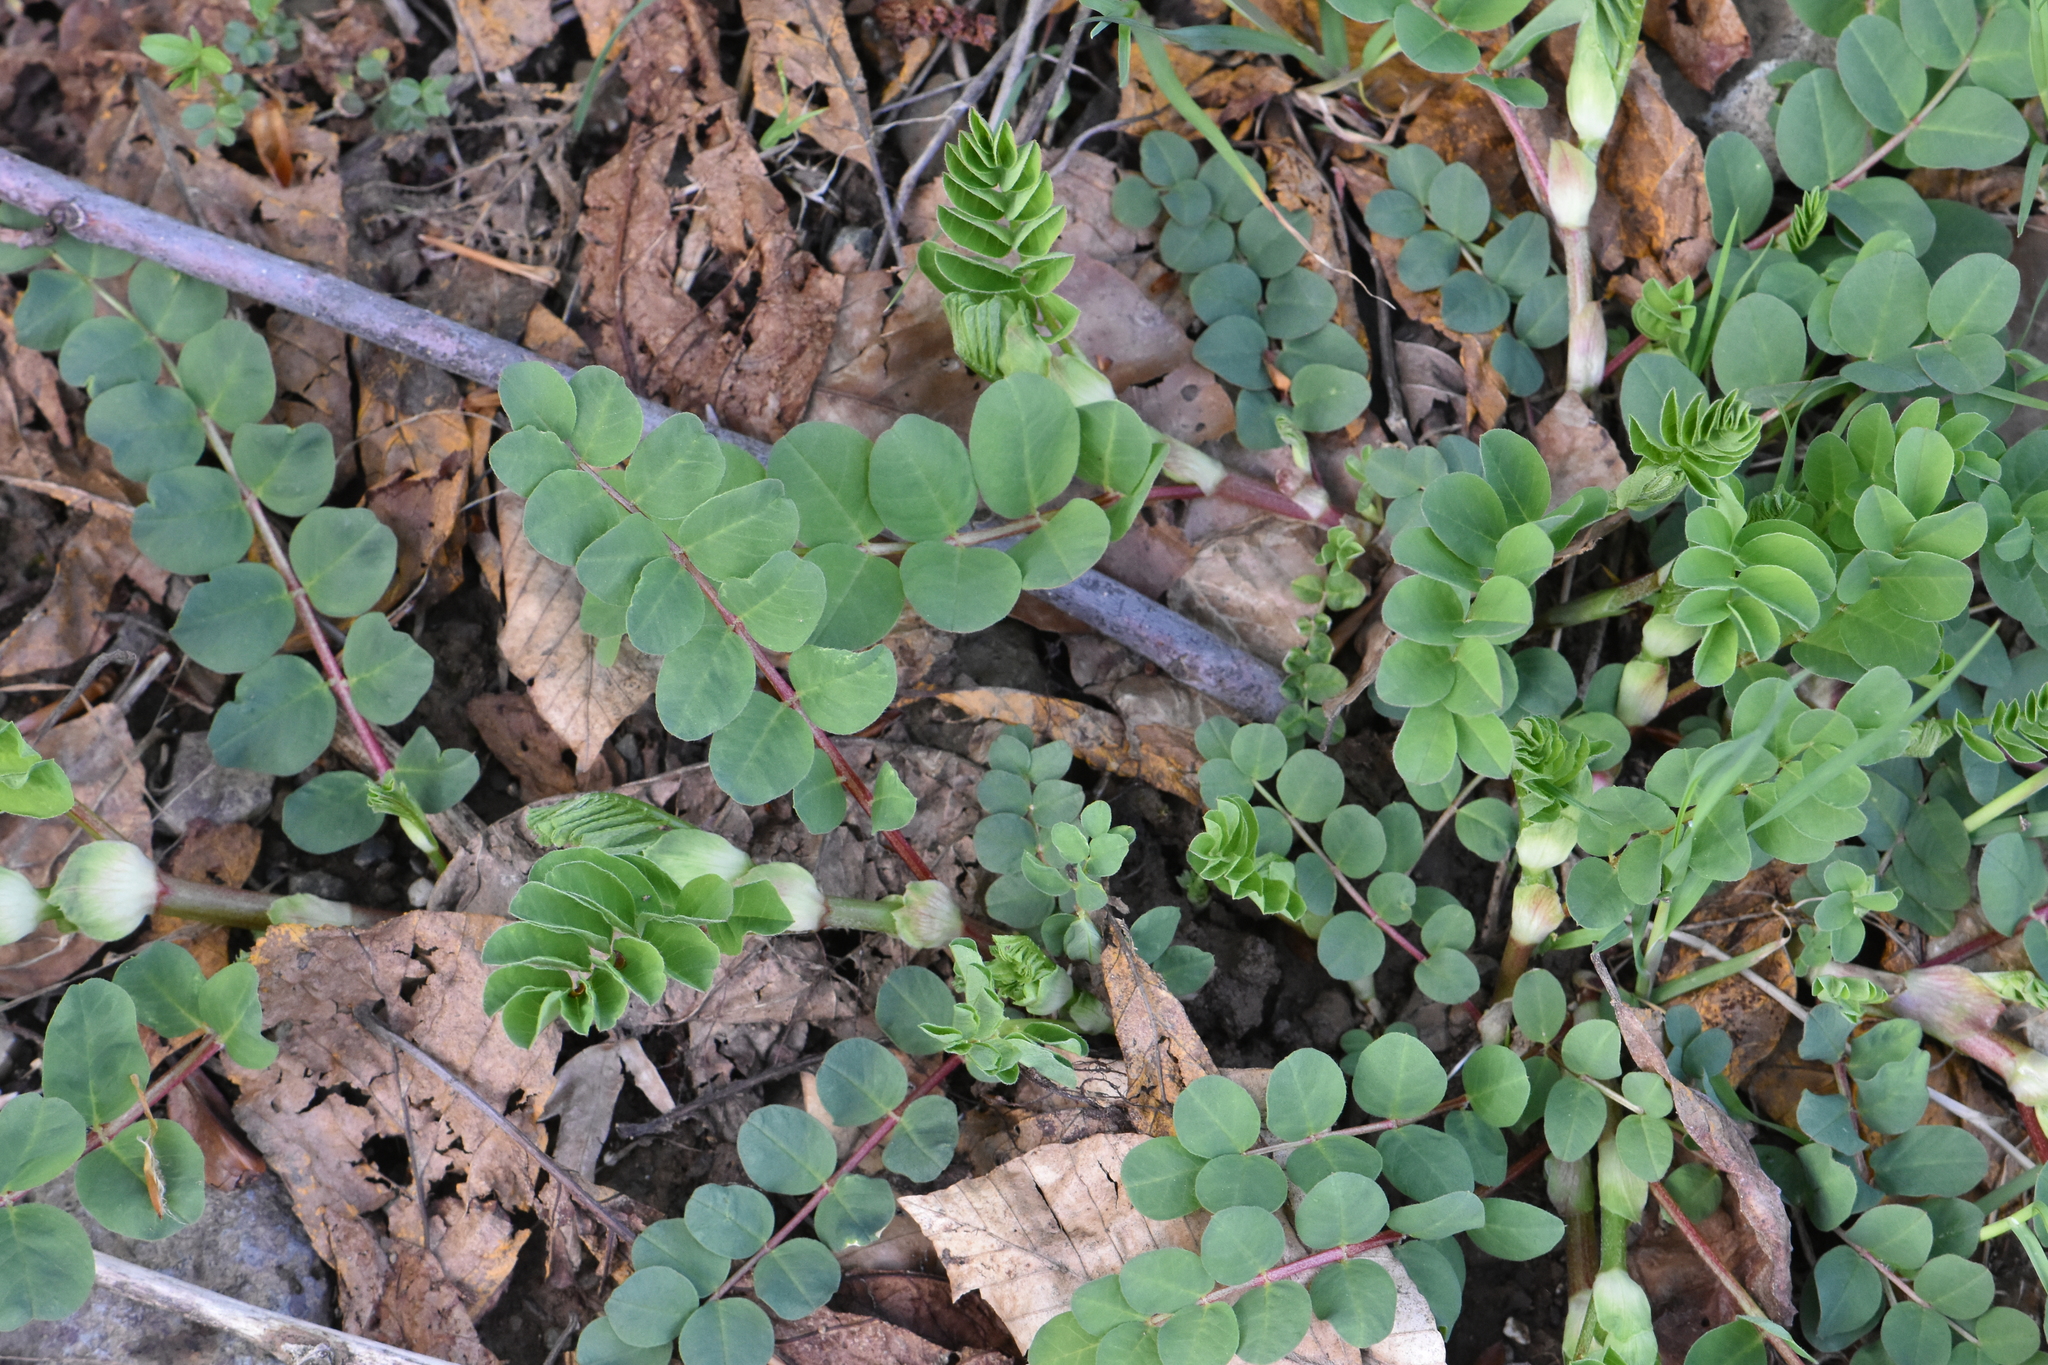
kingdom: Plantae
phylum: Tracheophyta
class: Magnoliopsida
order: Fabales
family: Fabaceae
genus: Astragalus
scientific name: Astragalus glycyphyllos
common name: Wild liquorice
